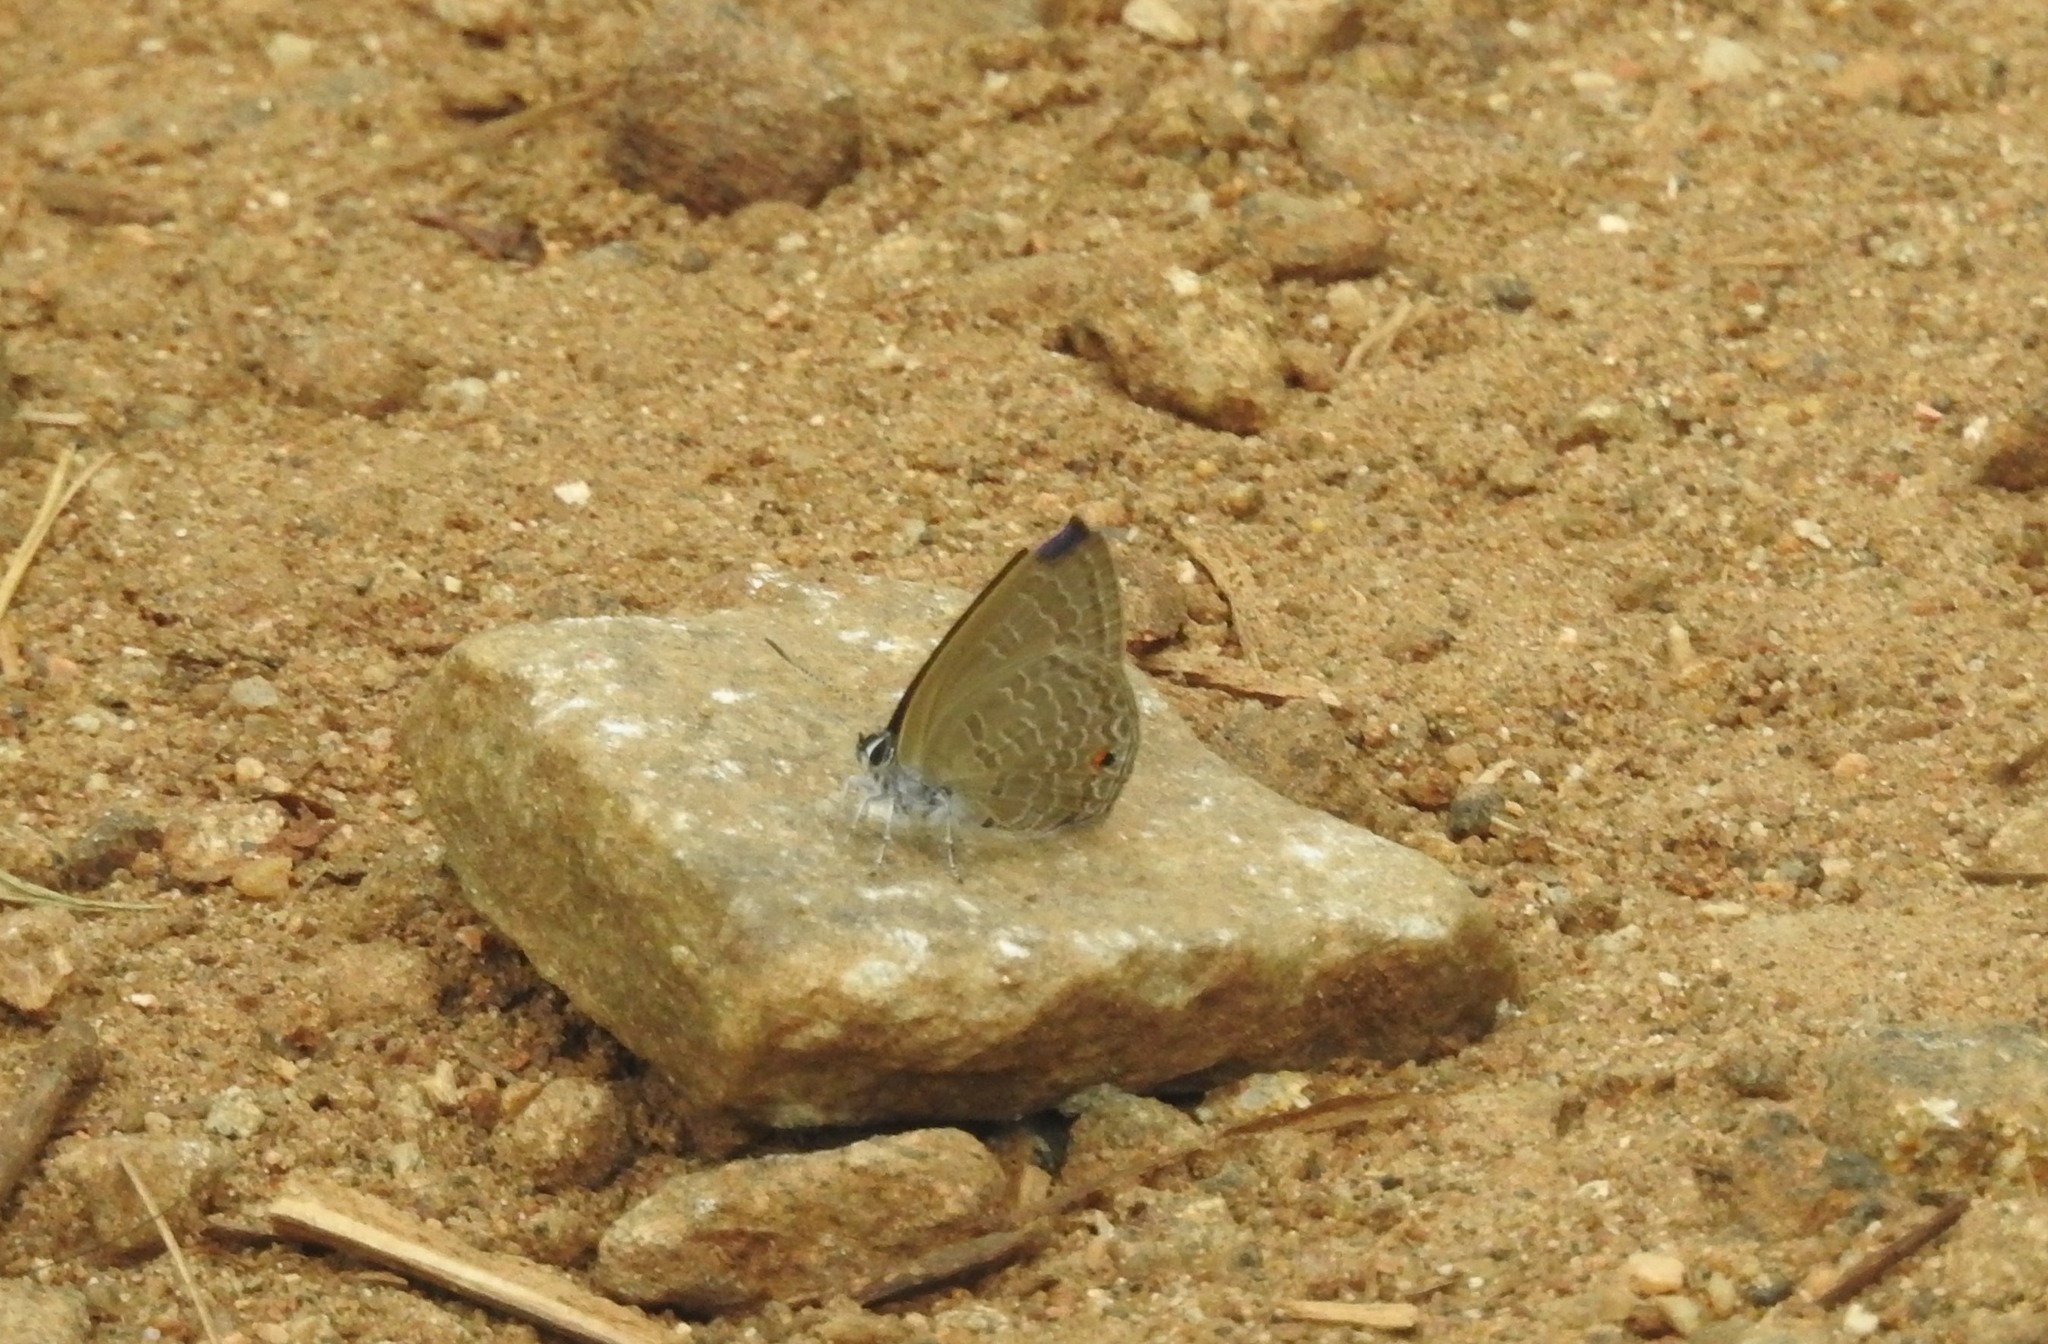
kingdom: Animalia
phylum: Arthropoda
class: Insecta
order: Lepidoptera
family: Lycaenidae
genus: Anthene
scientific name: Anthene emolus
